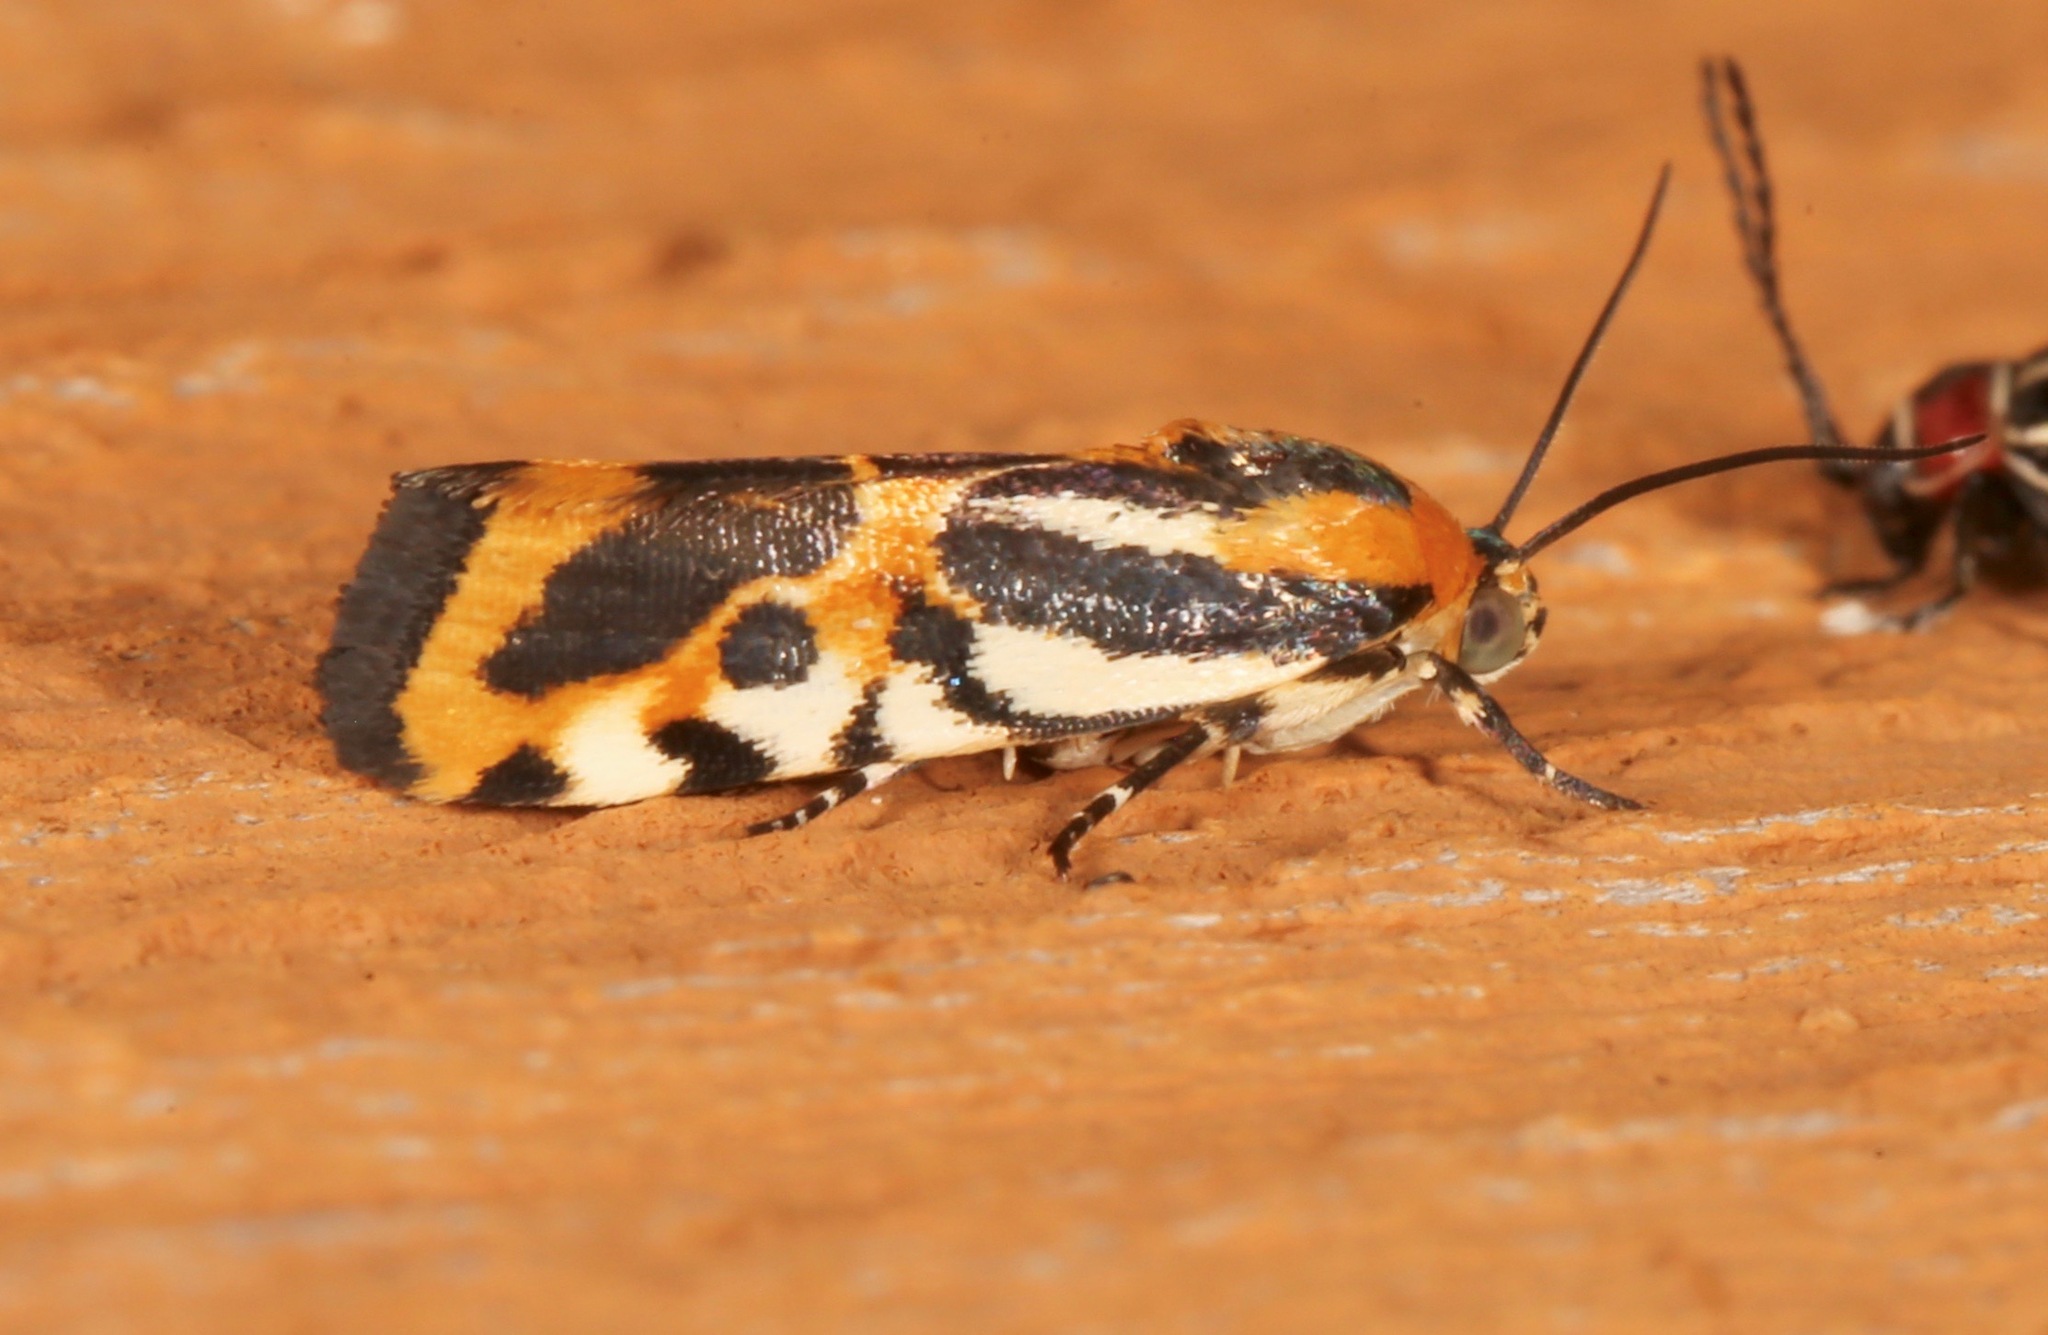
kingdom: Animalia
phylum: Arthropoda
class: Insecta
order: Lepidoptera
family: Noctuidae
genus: Acontia
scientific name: Acontia onagrus
